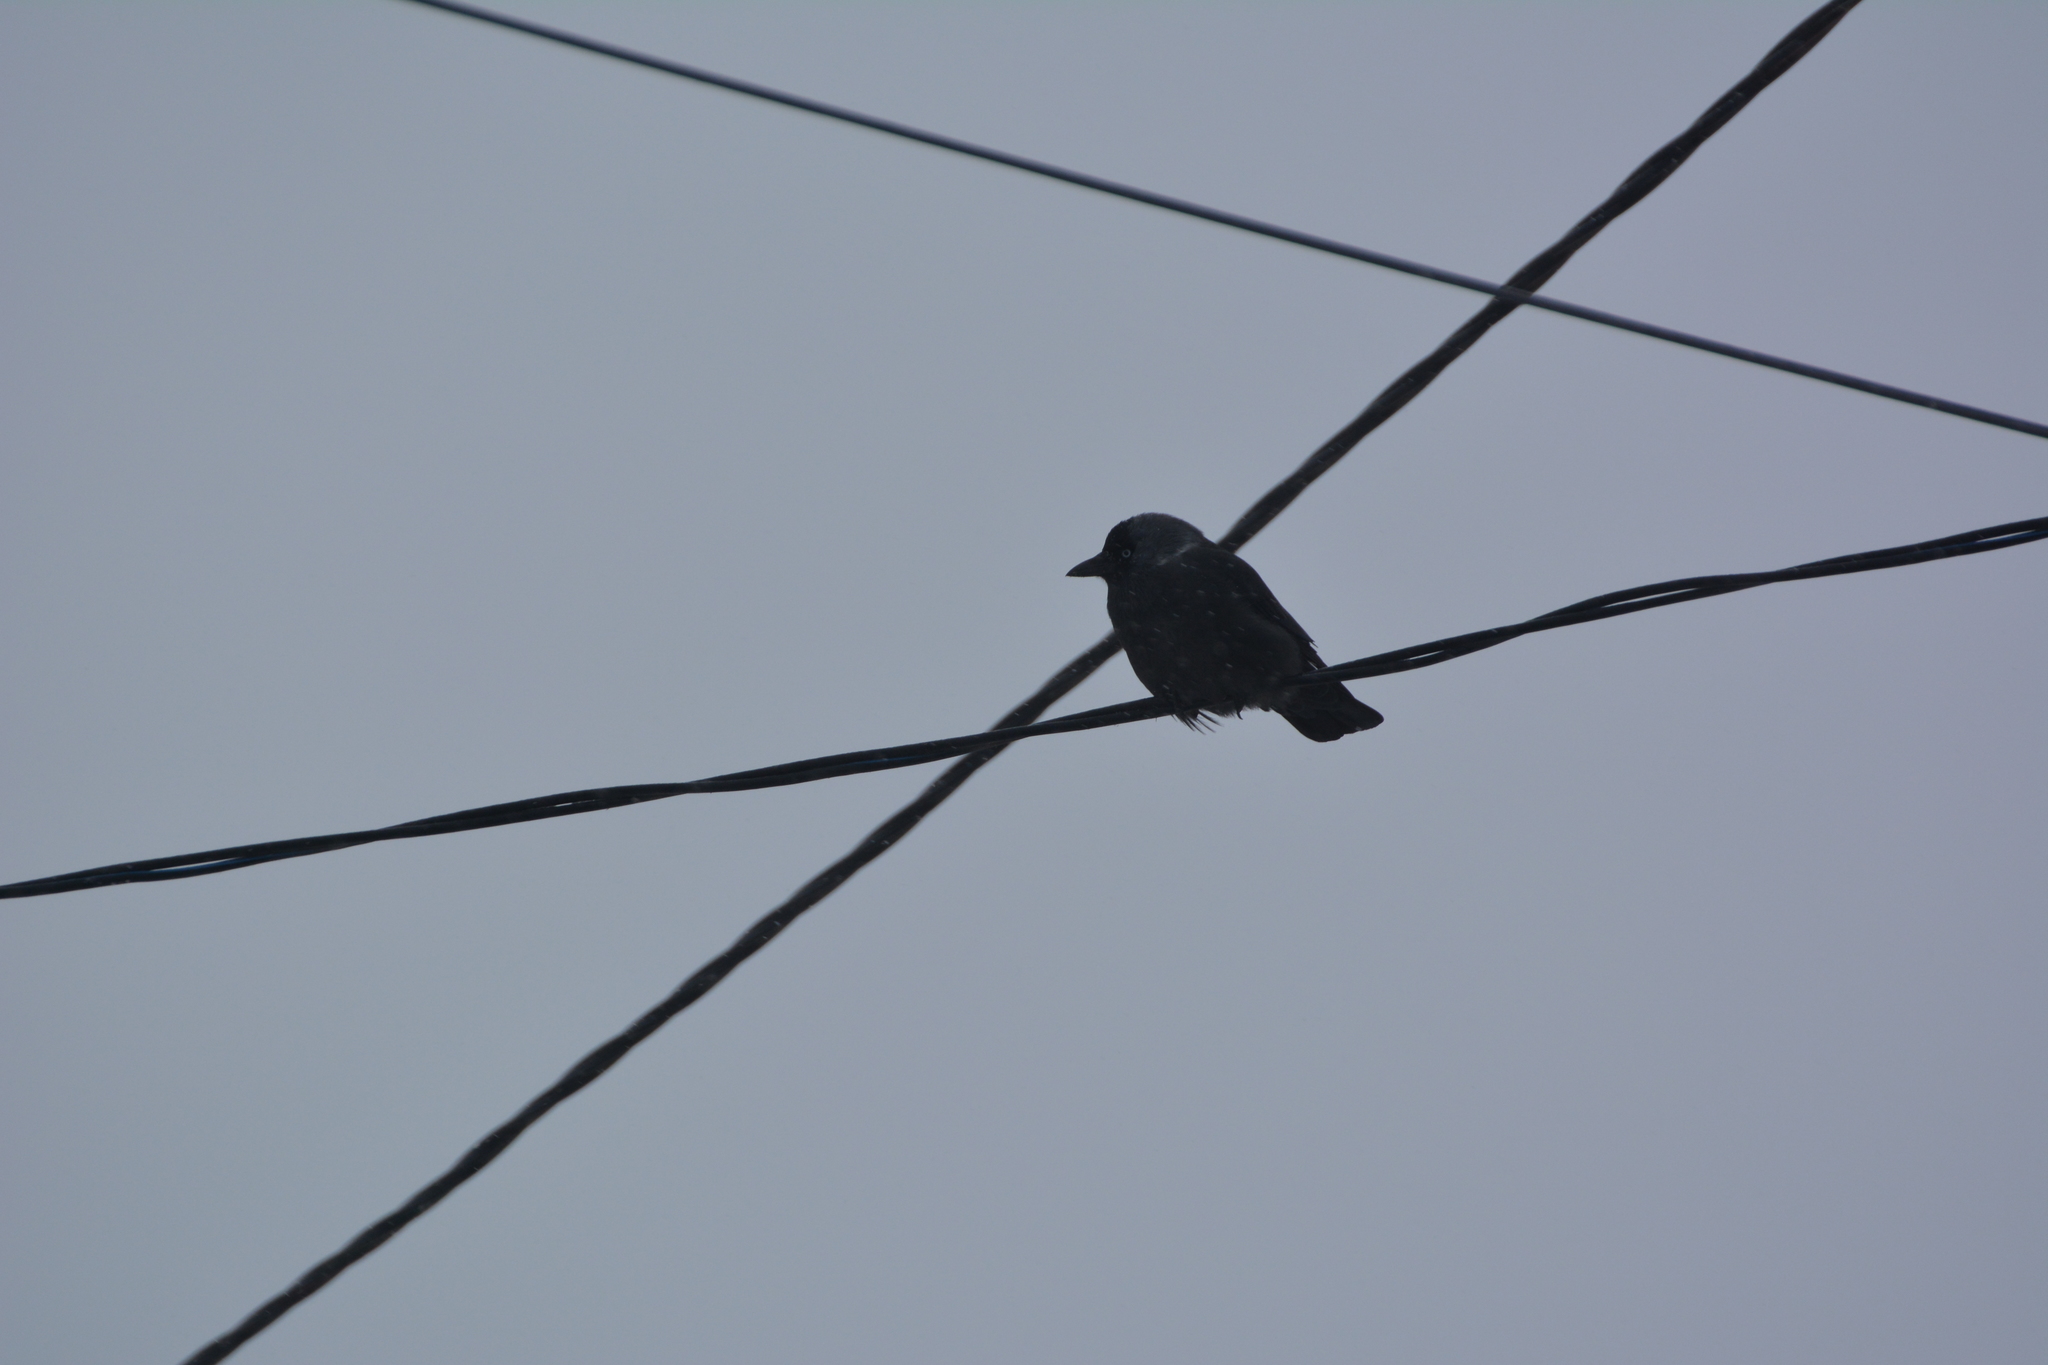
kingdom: Animalia
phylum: Chordata
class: Aves
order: Passeriformes
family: Corvidae
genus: Coloeus
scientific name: Coloeus monedula
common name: Western jackdaw
